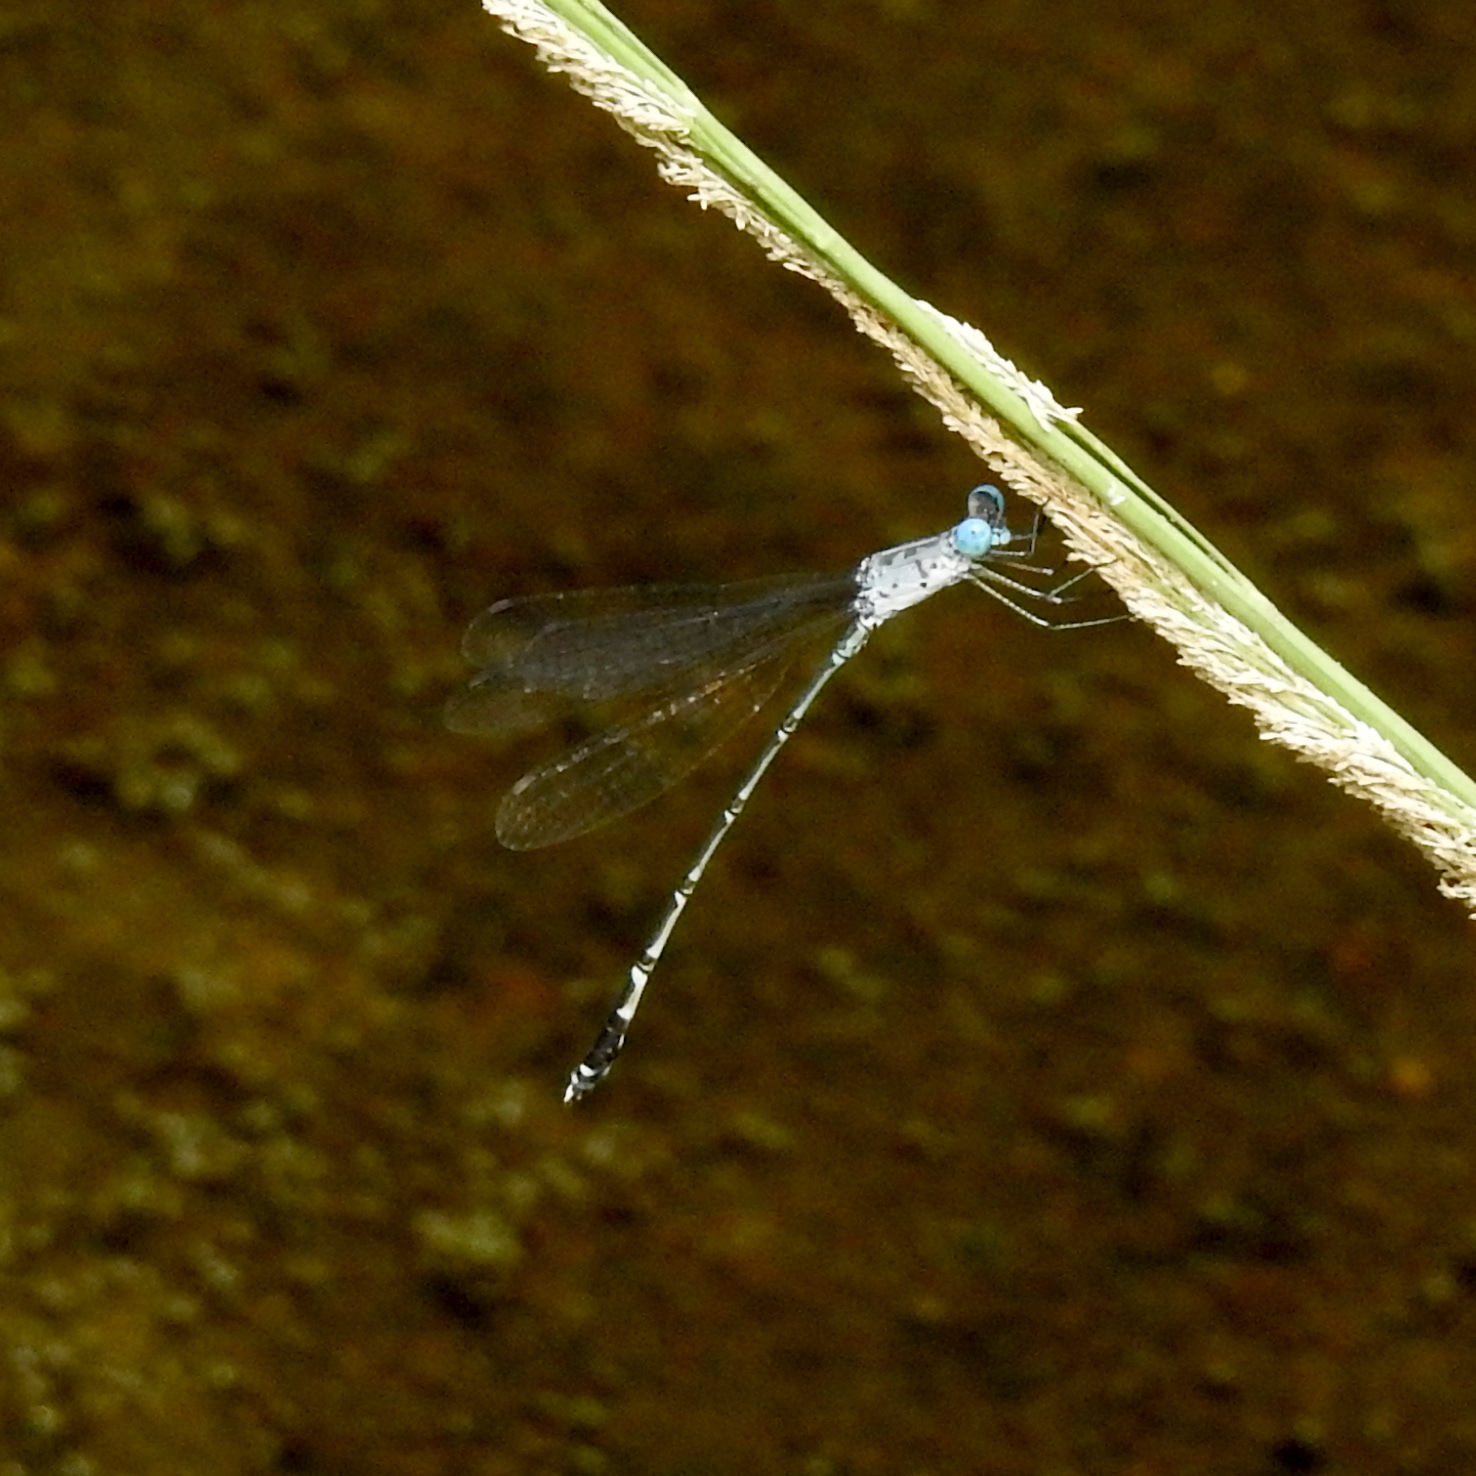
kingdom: Animalia
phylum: Arthropoda
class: Insecta
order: Odonata
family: Lestidae
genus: Lestes
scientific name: Lestes praemorsus
